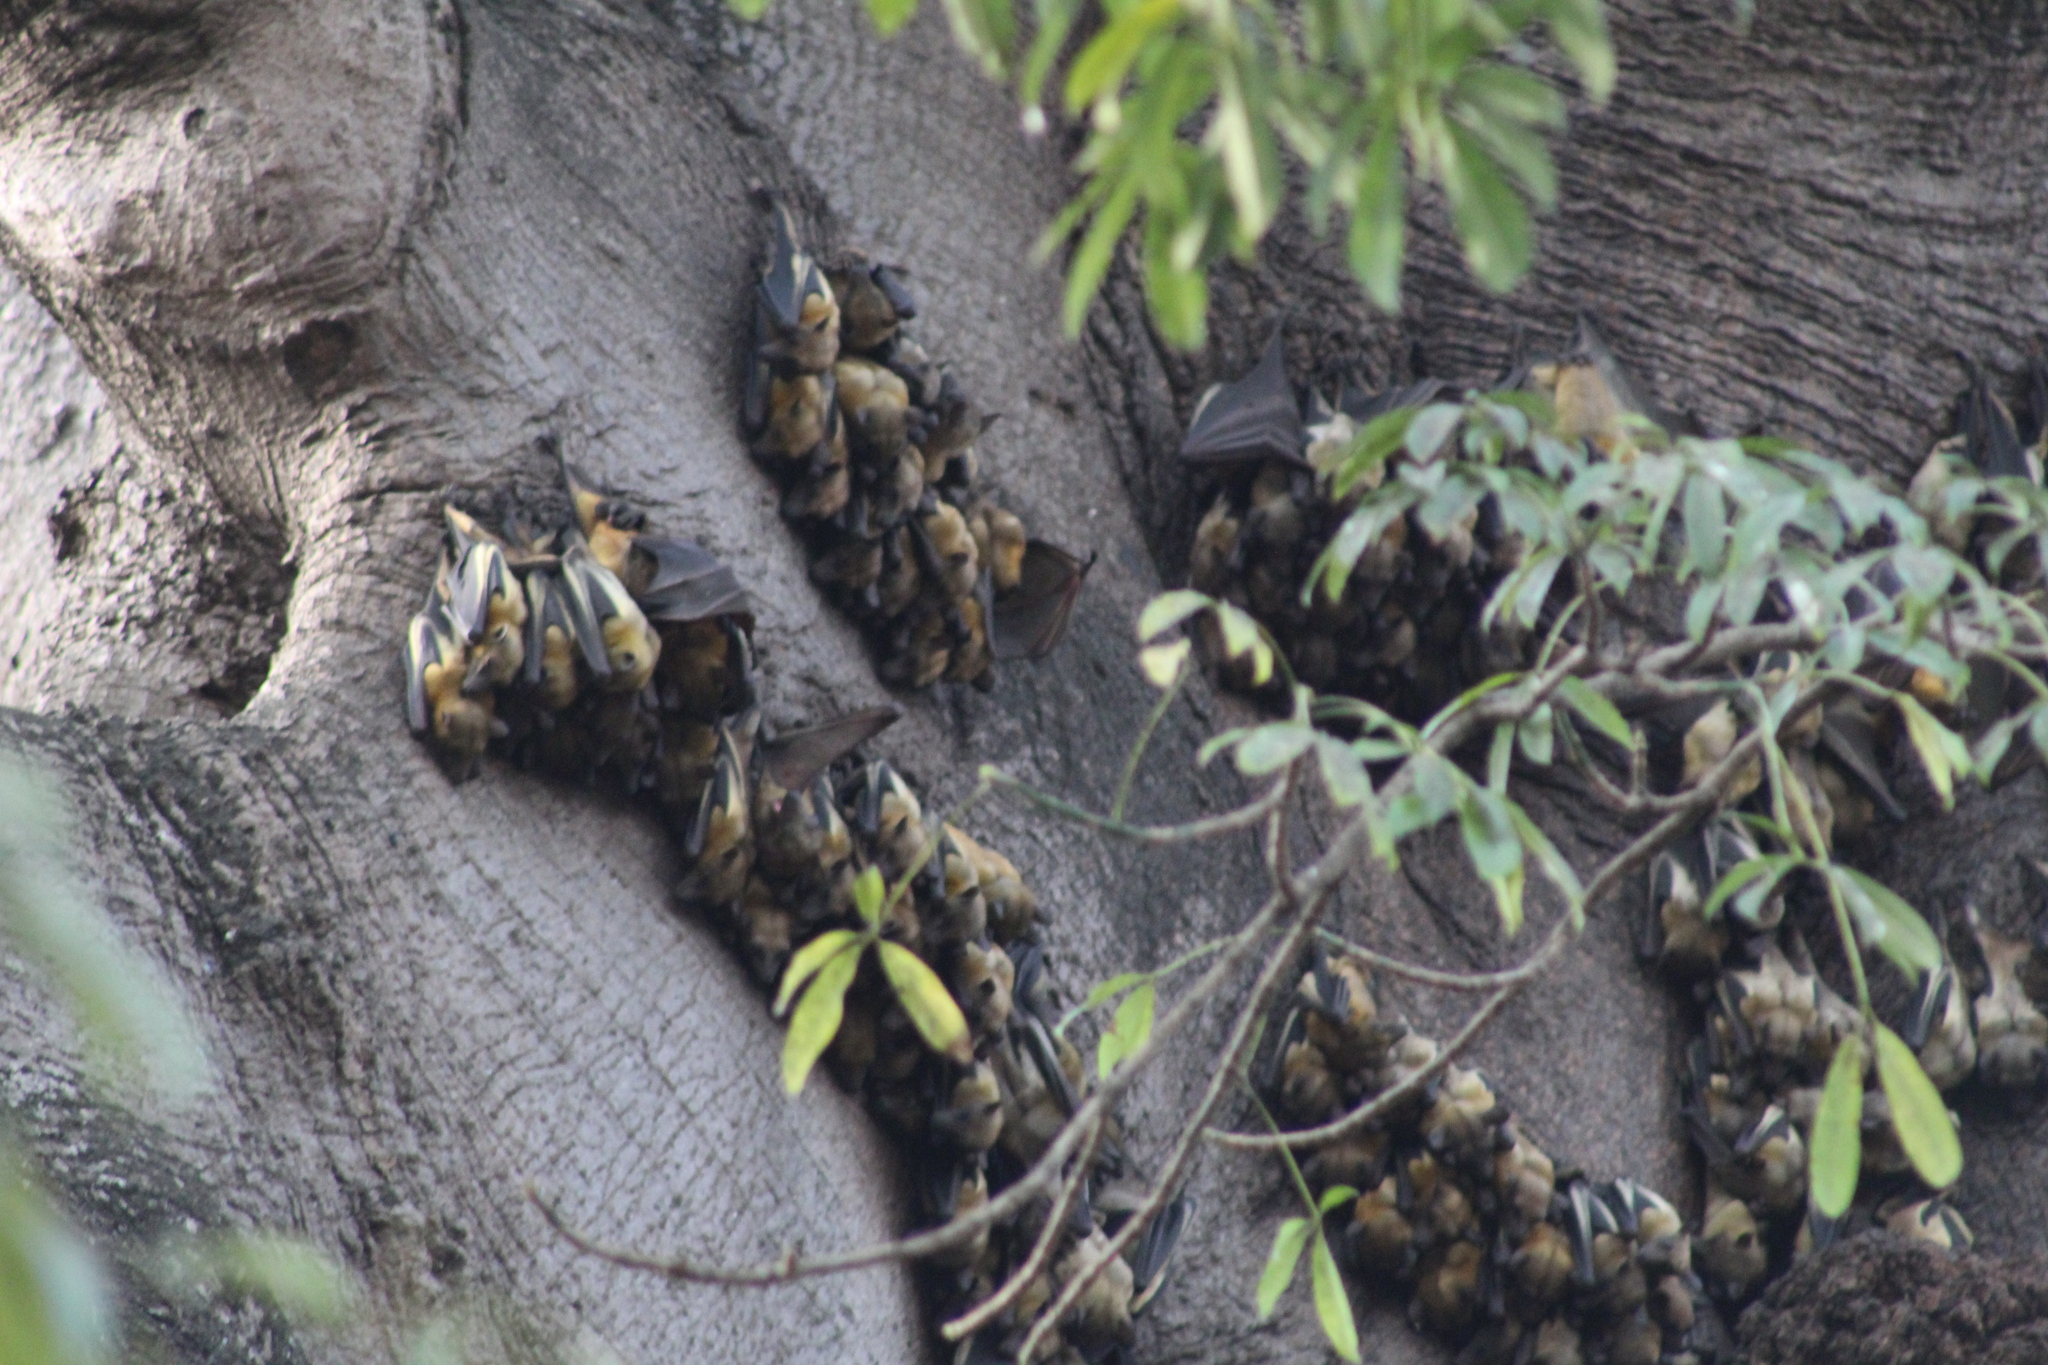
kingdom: Animalia
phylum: Chordata
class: Mammalia
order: Chiroptera
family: Pteropodidae
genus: Eidolon
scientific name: Eidolon helvum
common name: Straw-colored fruit bat
